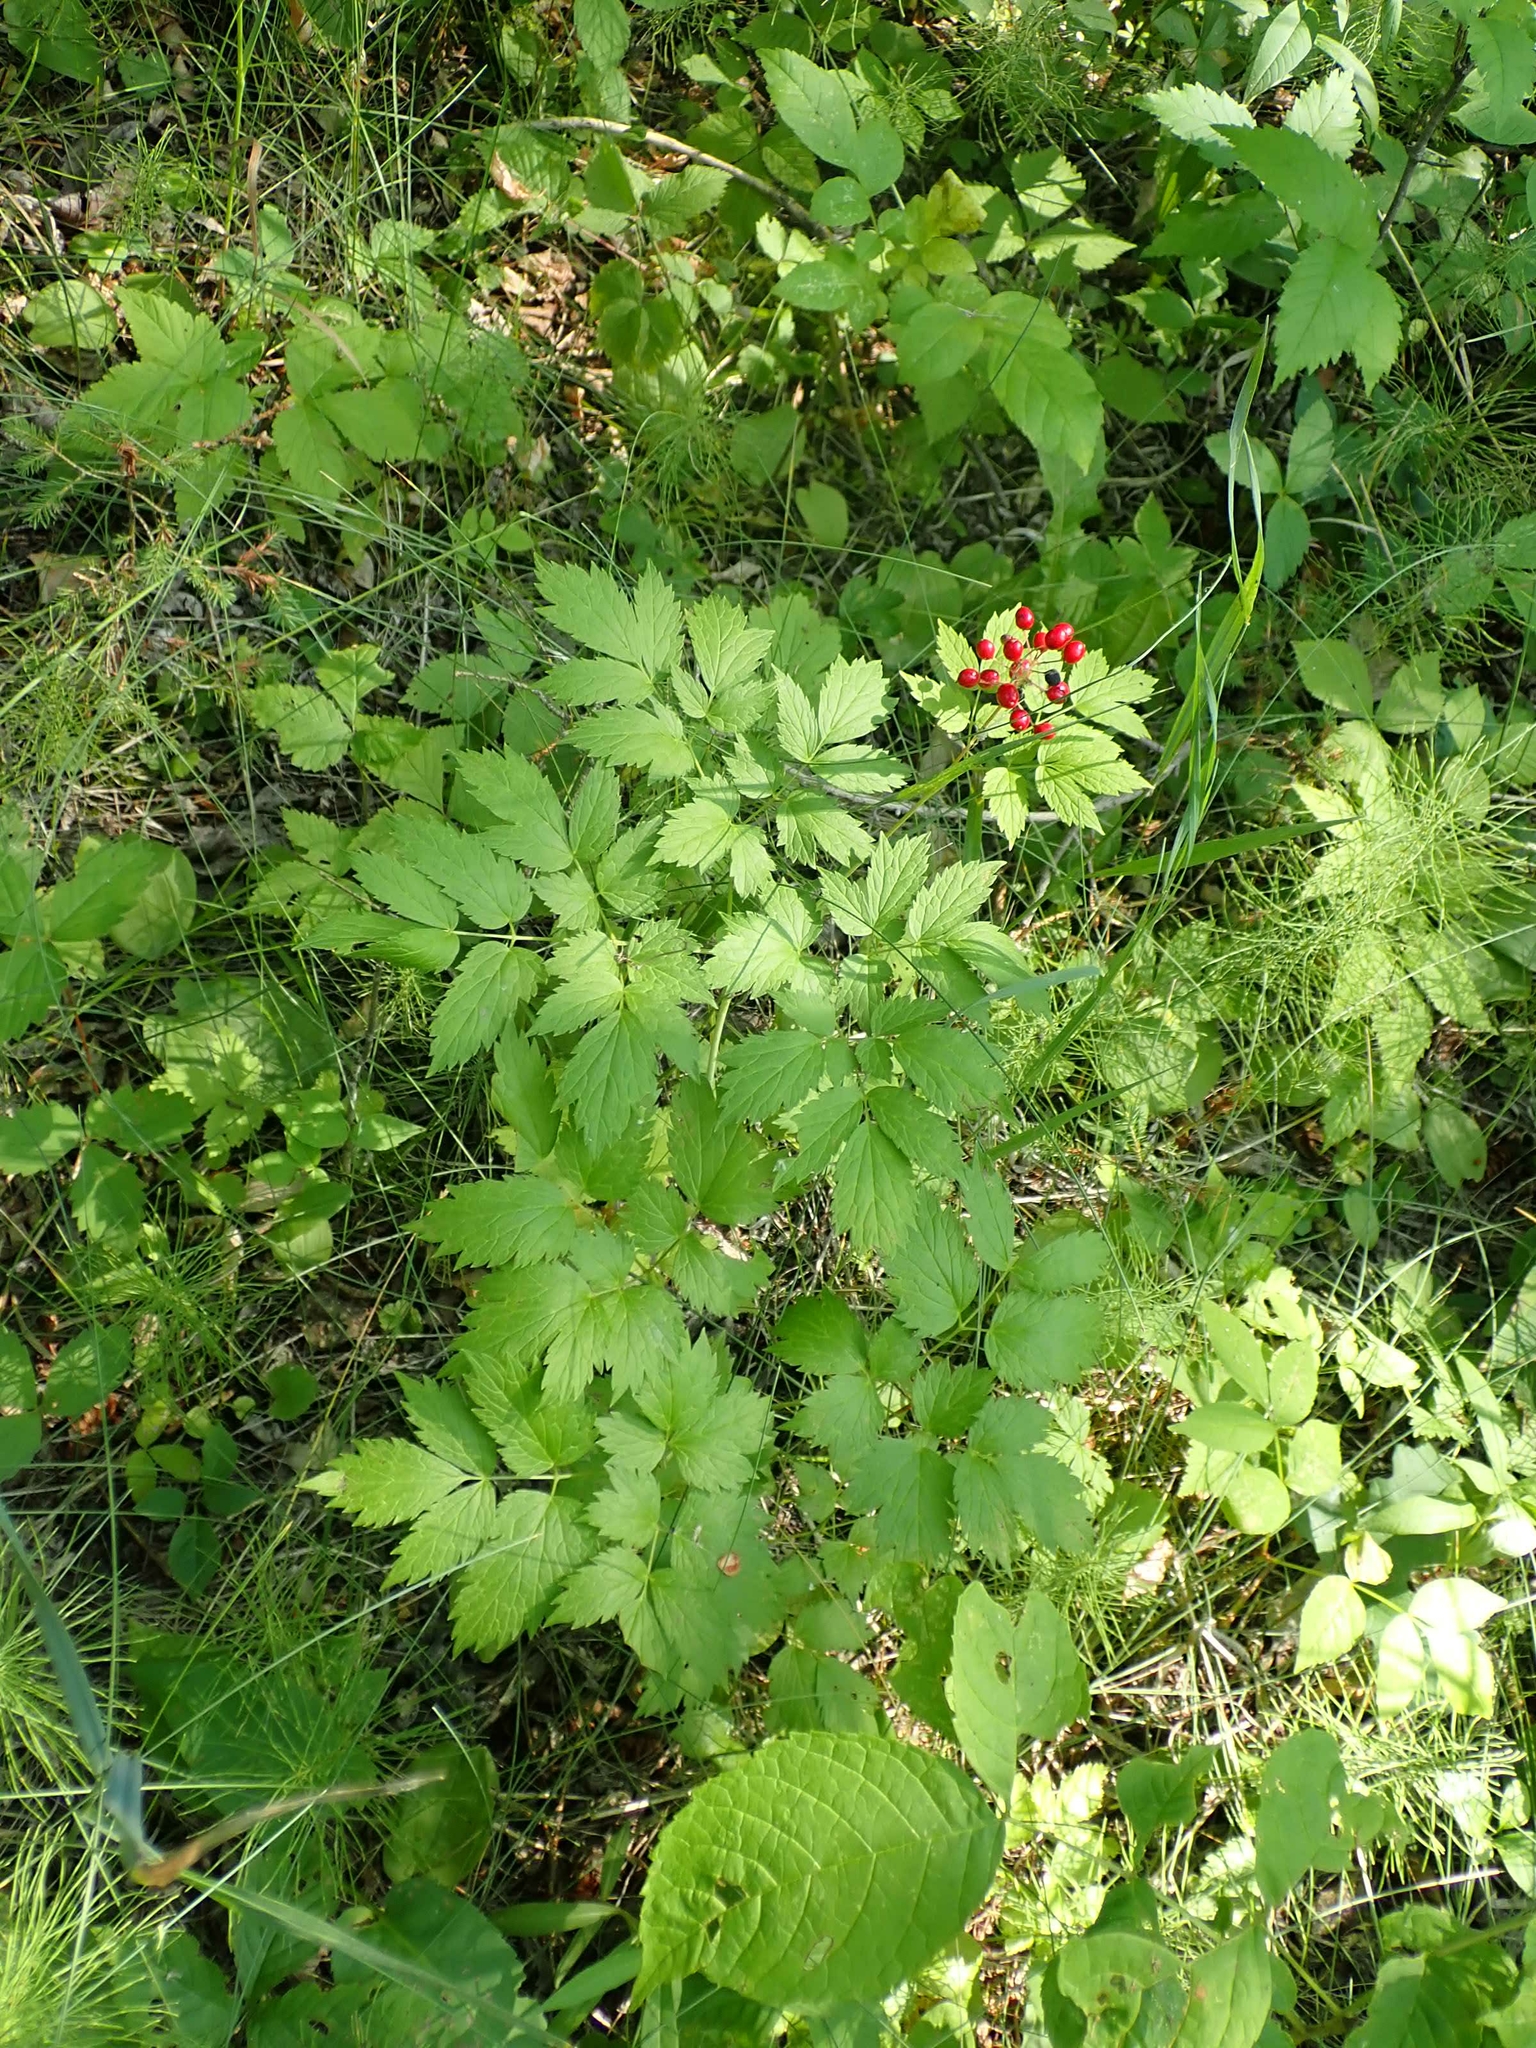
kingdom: Plantae
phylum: Tracheophyta
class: Magnoliopsida
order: Ranunculales
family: Ranunculaceae
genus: Actaea
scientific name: Actaea rubra
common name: Red baneberry
